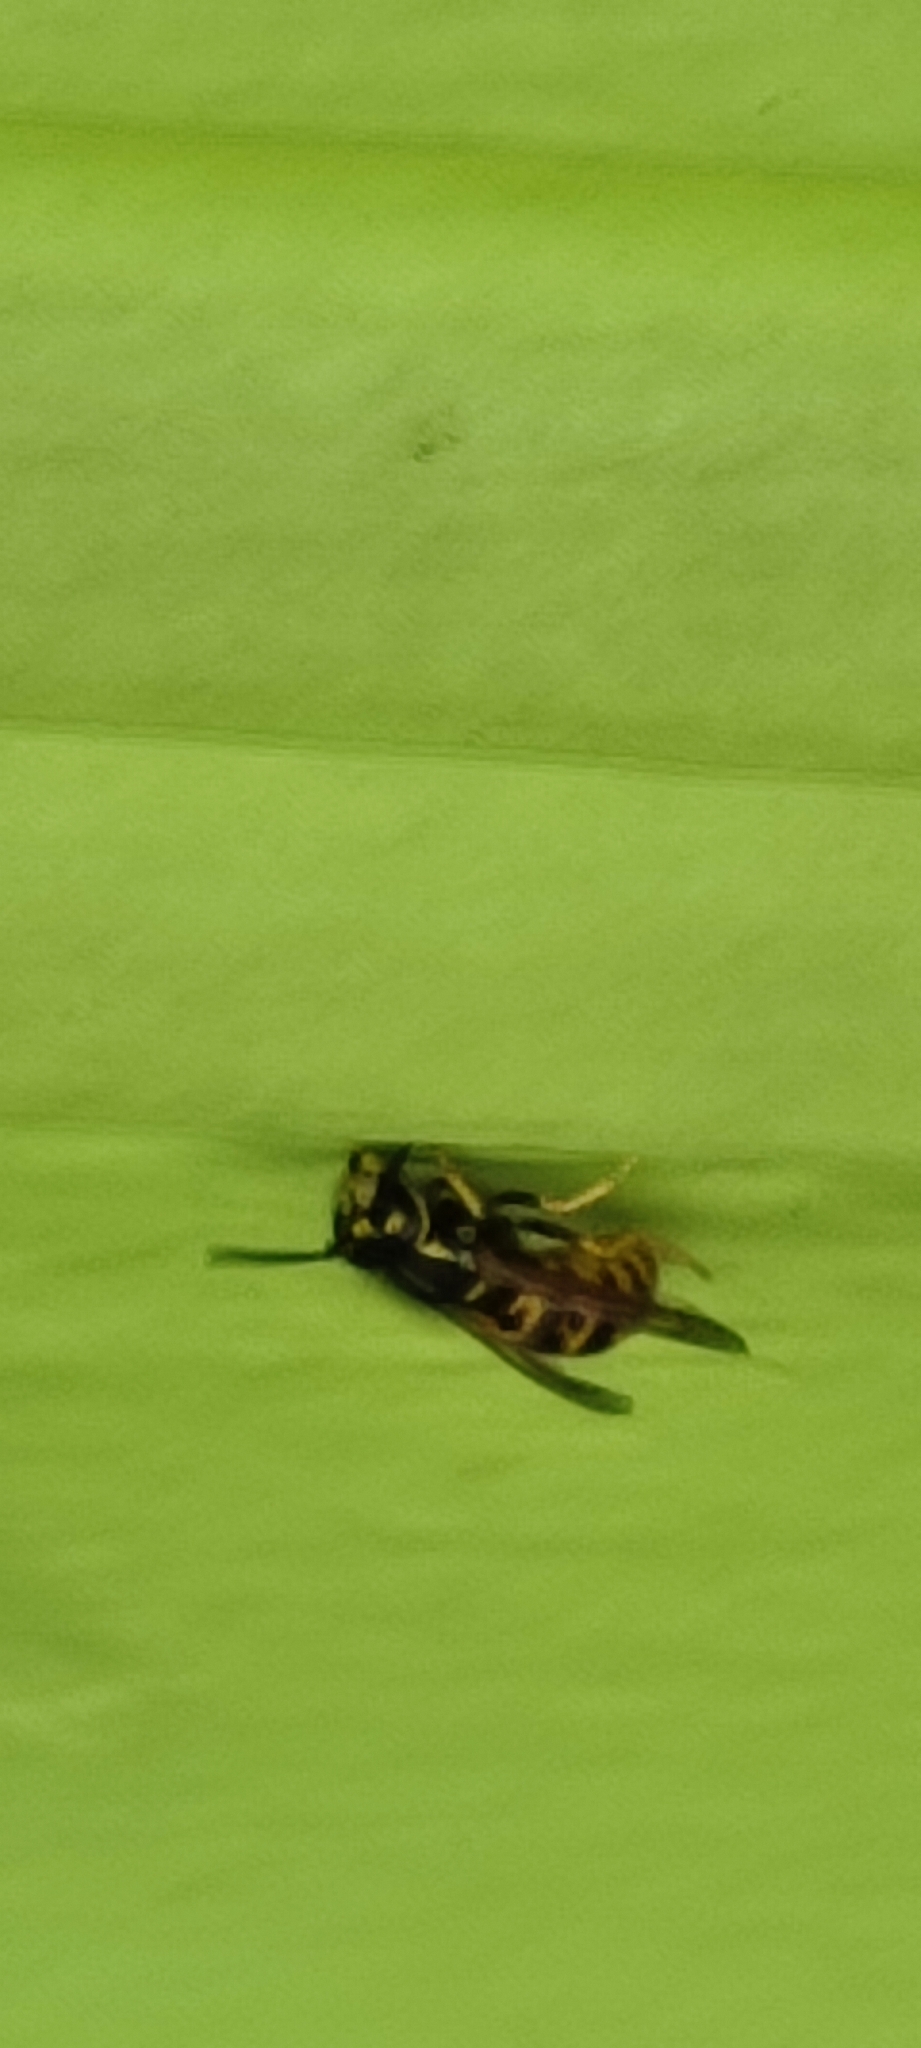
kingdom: Animalia
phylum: Arthropoda
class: Insecta
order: Hymenoptera
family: Vespidae
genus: Vespula
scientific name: Vespula germanica
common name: German wasp
